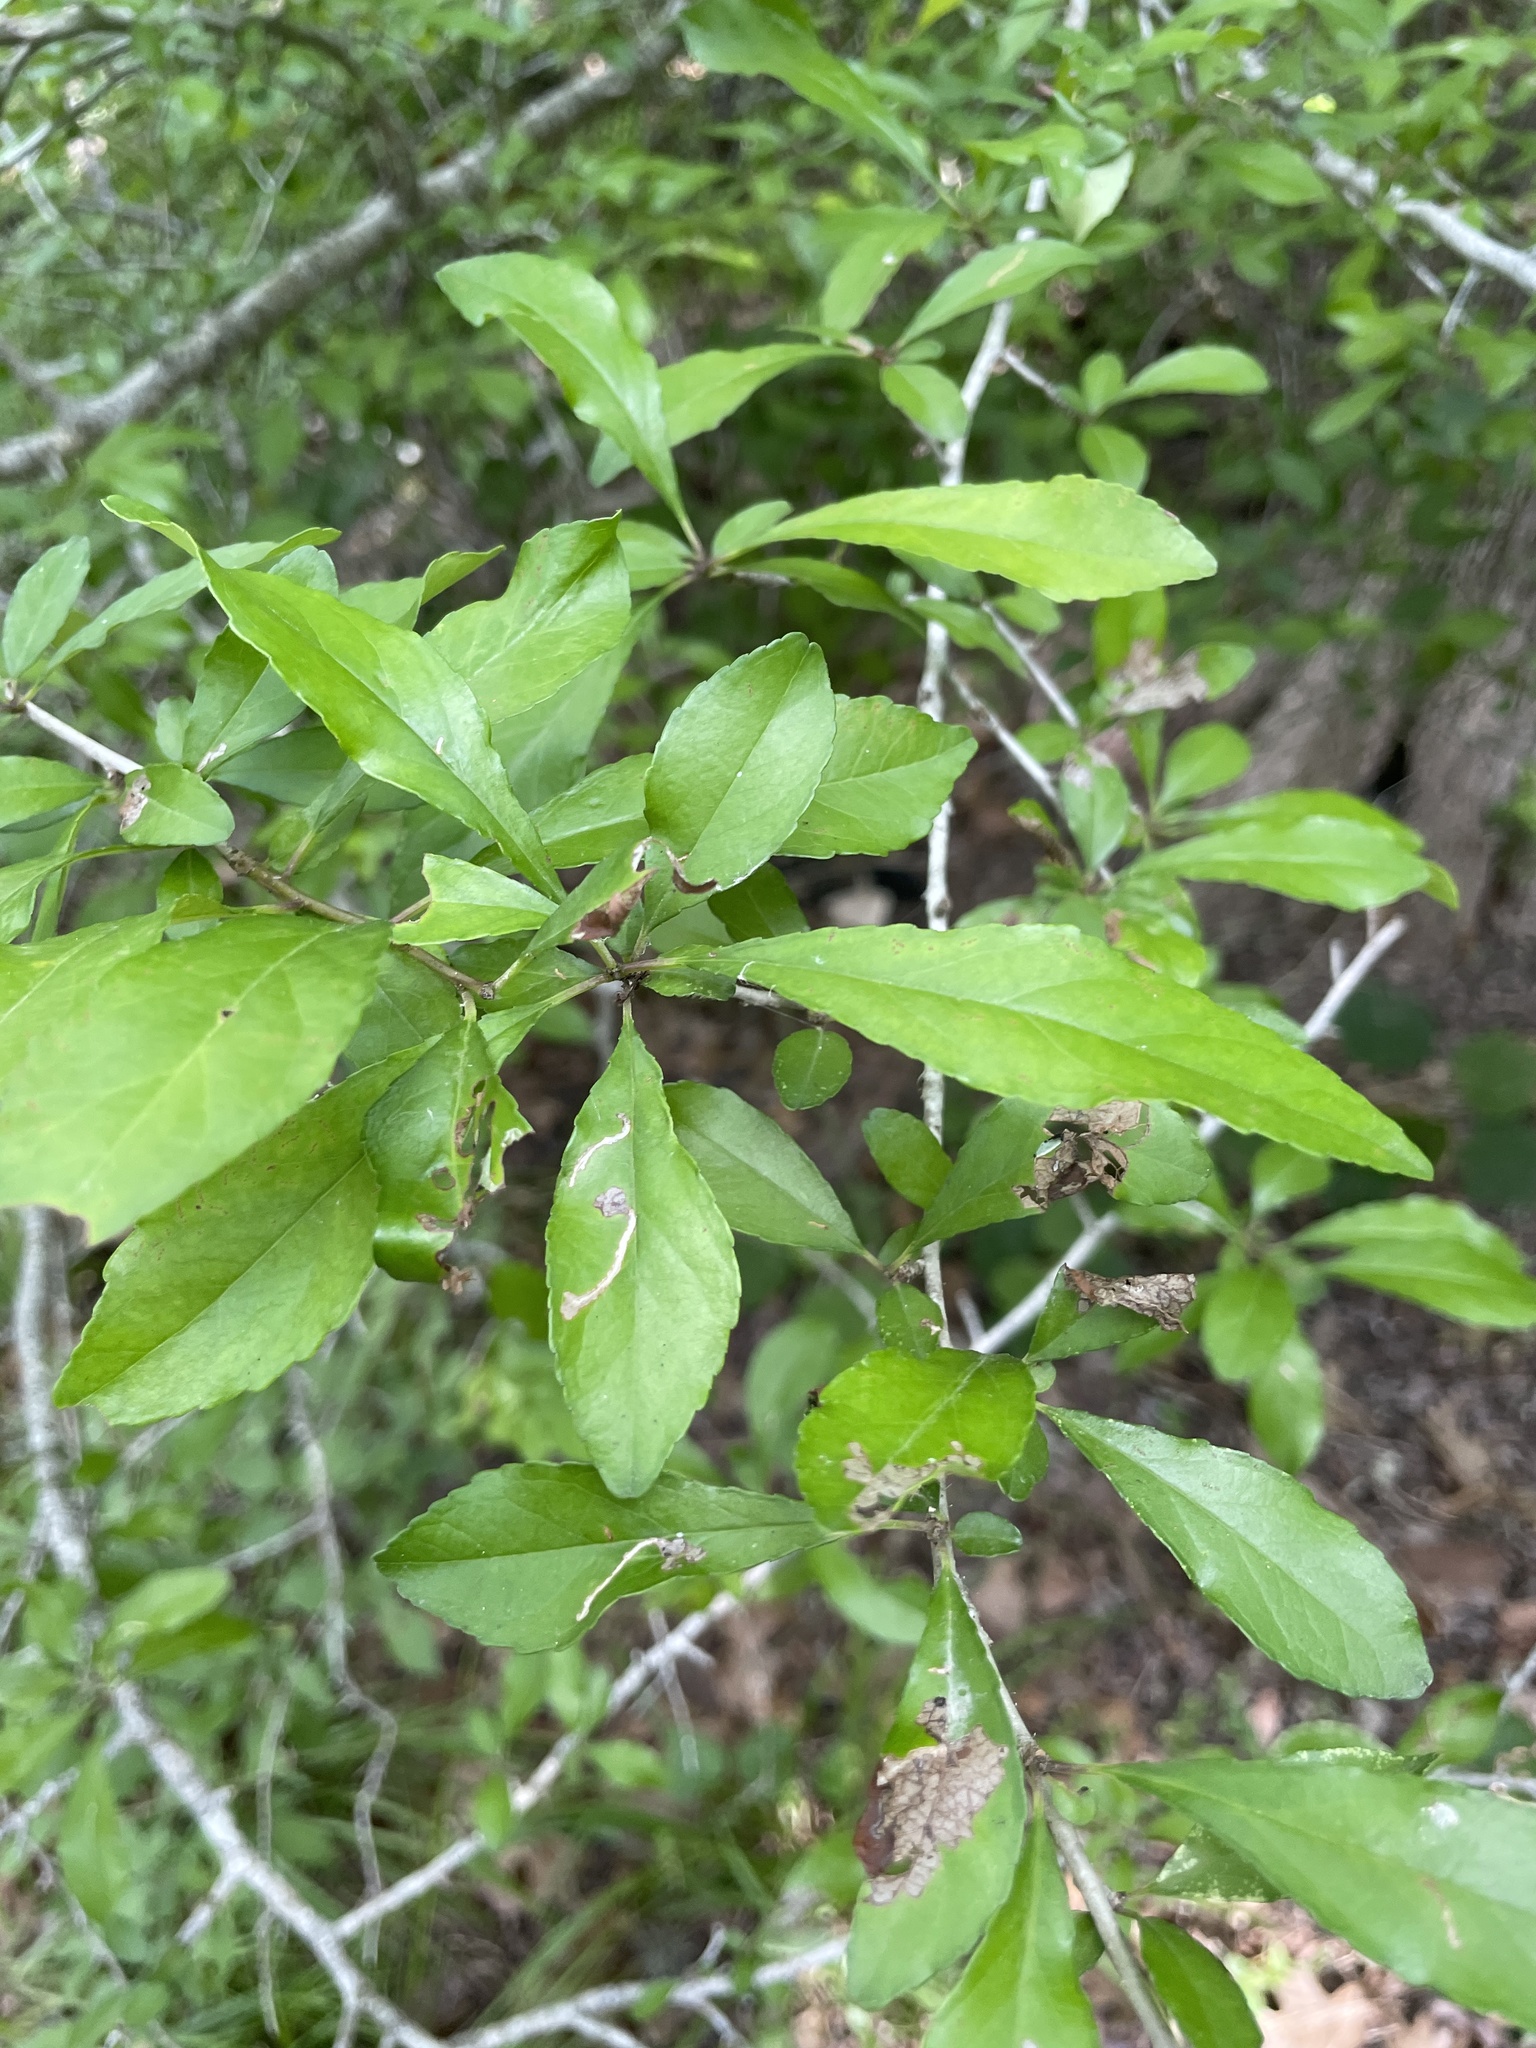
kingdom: Plantae
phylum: Tracheophyta
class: Magnoliopsida
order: Aquifoliales
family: Aquifoliaceae
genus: Ilex
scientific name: Ilex decidua
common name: Possum-haw
